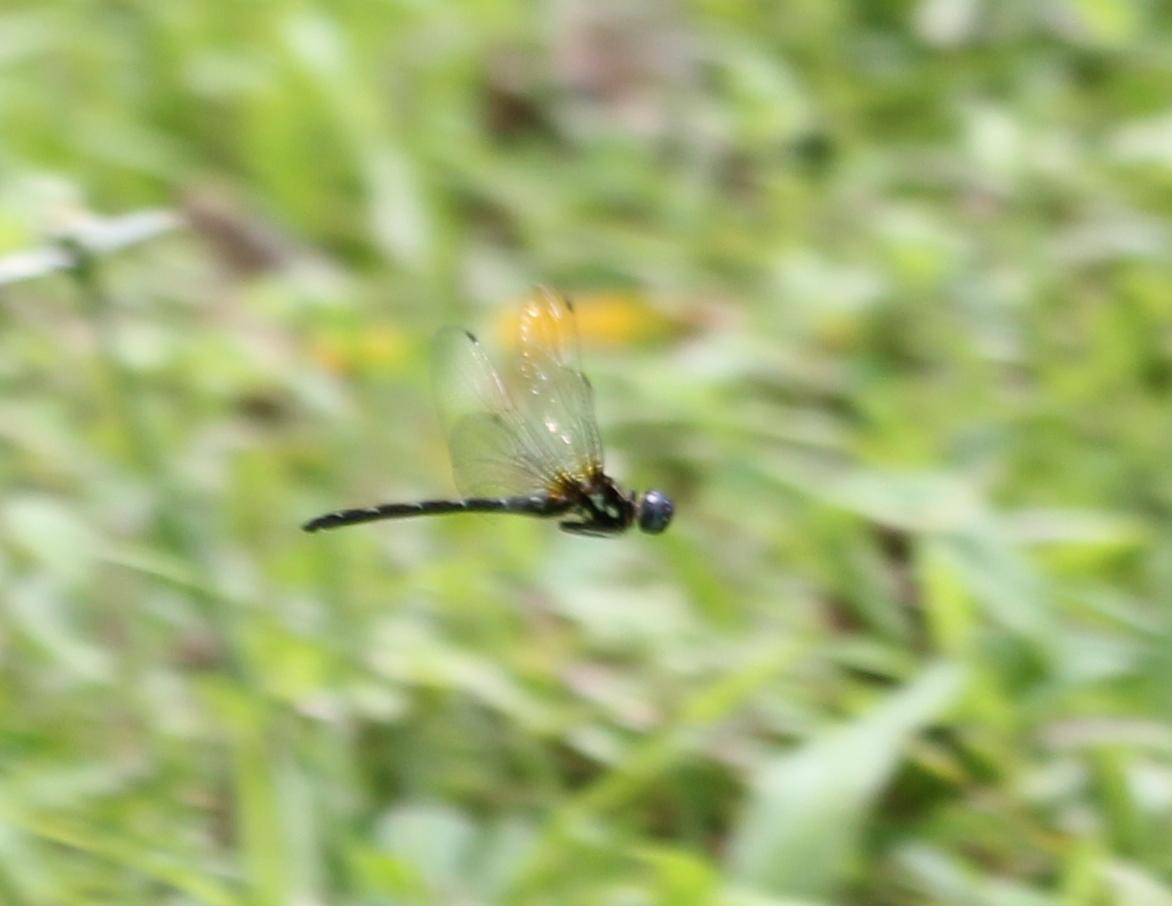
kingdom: Animalia
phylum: Arthropoda
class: Insecta
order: Odonata
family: Libellulidae
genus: Macrothemis
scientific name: Macrothemis celeno
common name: Antillean sylph
